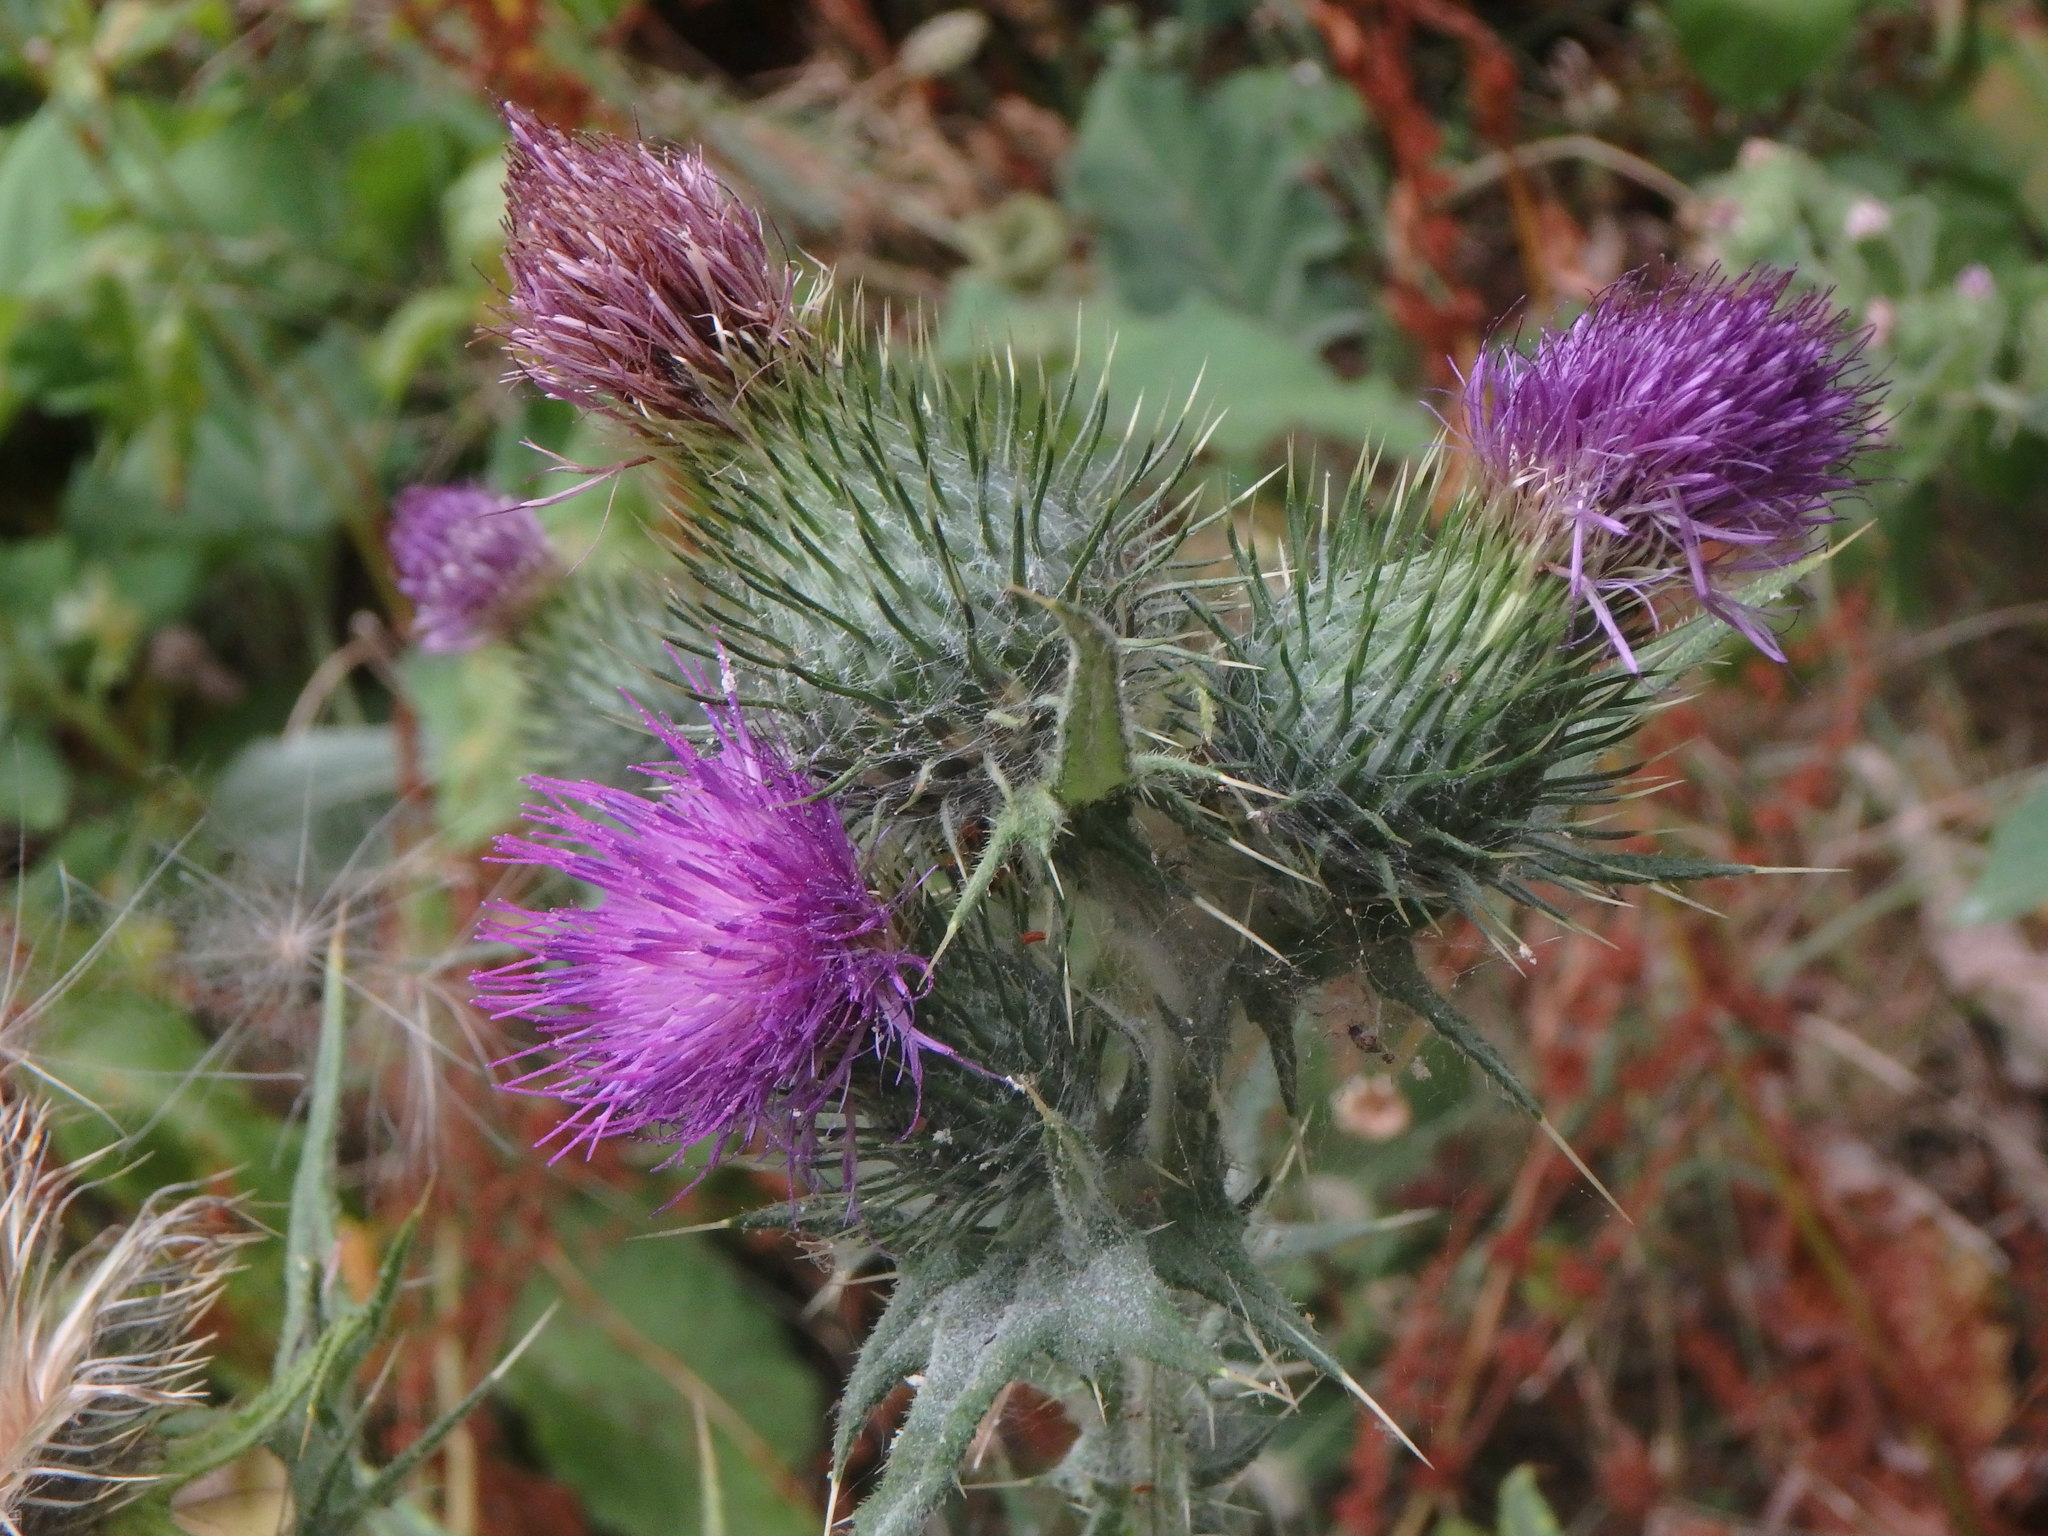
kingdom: Plantae
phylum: Tracheophyta
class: Magnoliopsida
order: Asterales
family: Asteraceae
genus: Cirsium
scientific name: Cirsium vulgare
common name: Bull thistle
